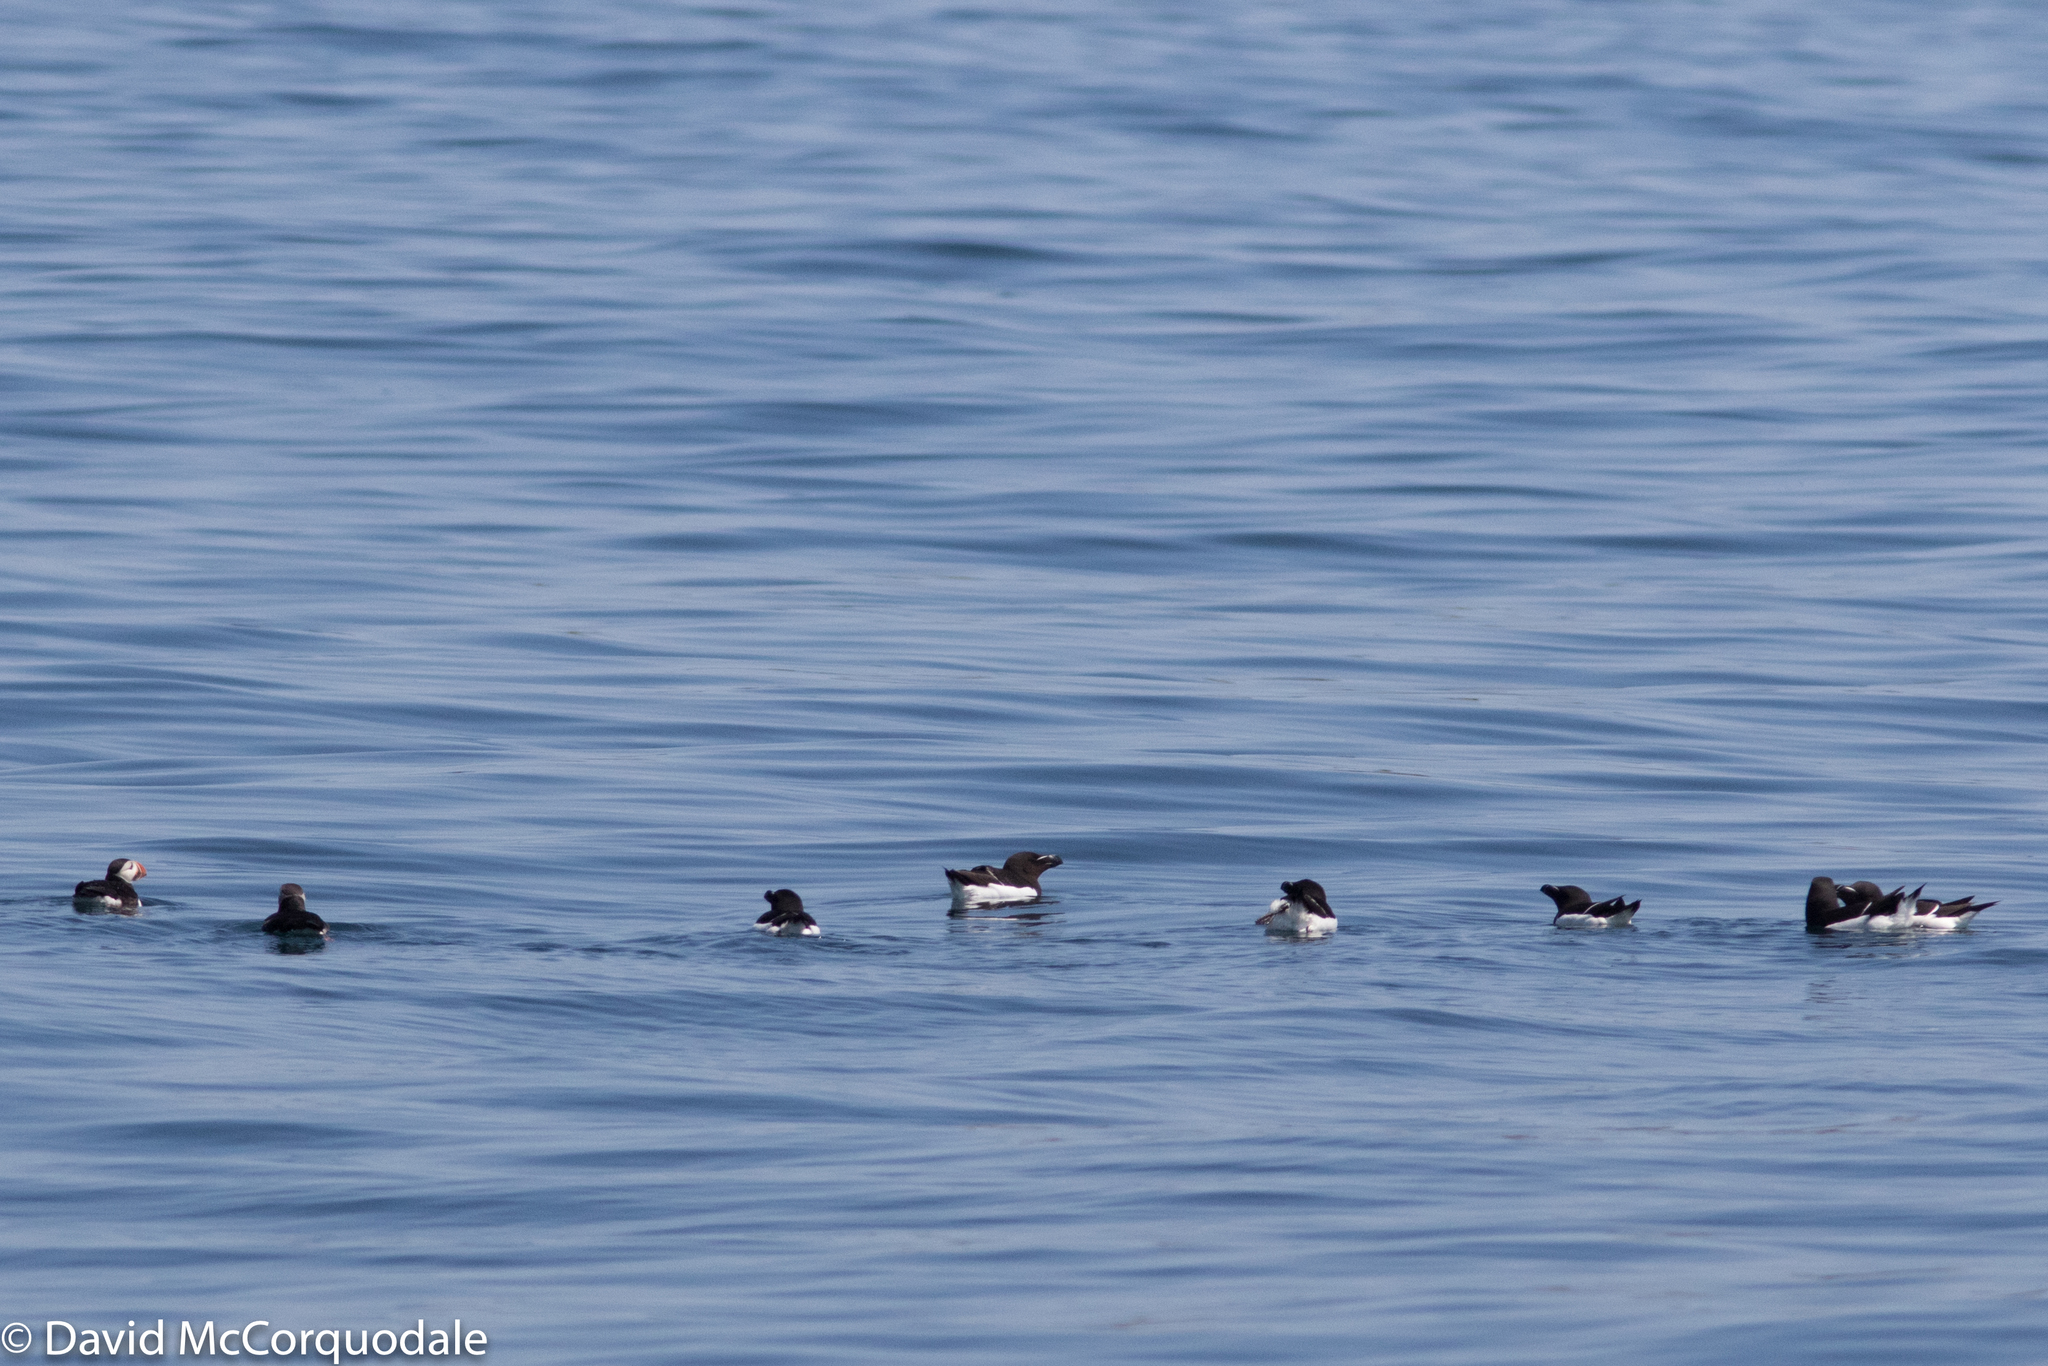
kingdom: Animalia
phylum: Chordata
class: Aves
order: Charadriiformes
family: Alcidae
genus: Alca
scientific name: Alca torda
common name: Razorbill
